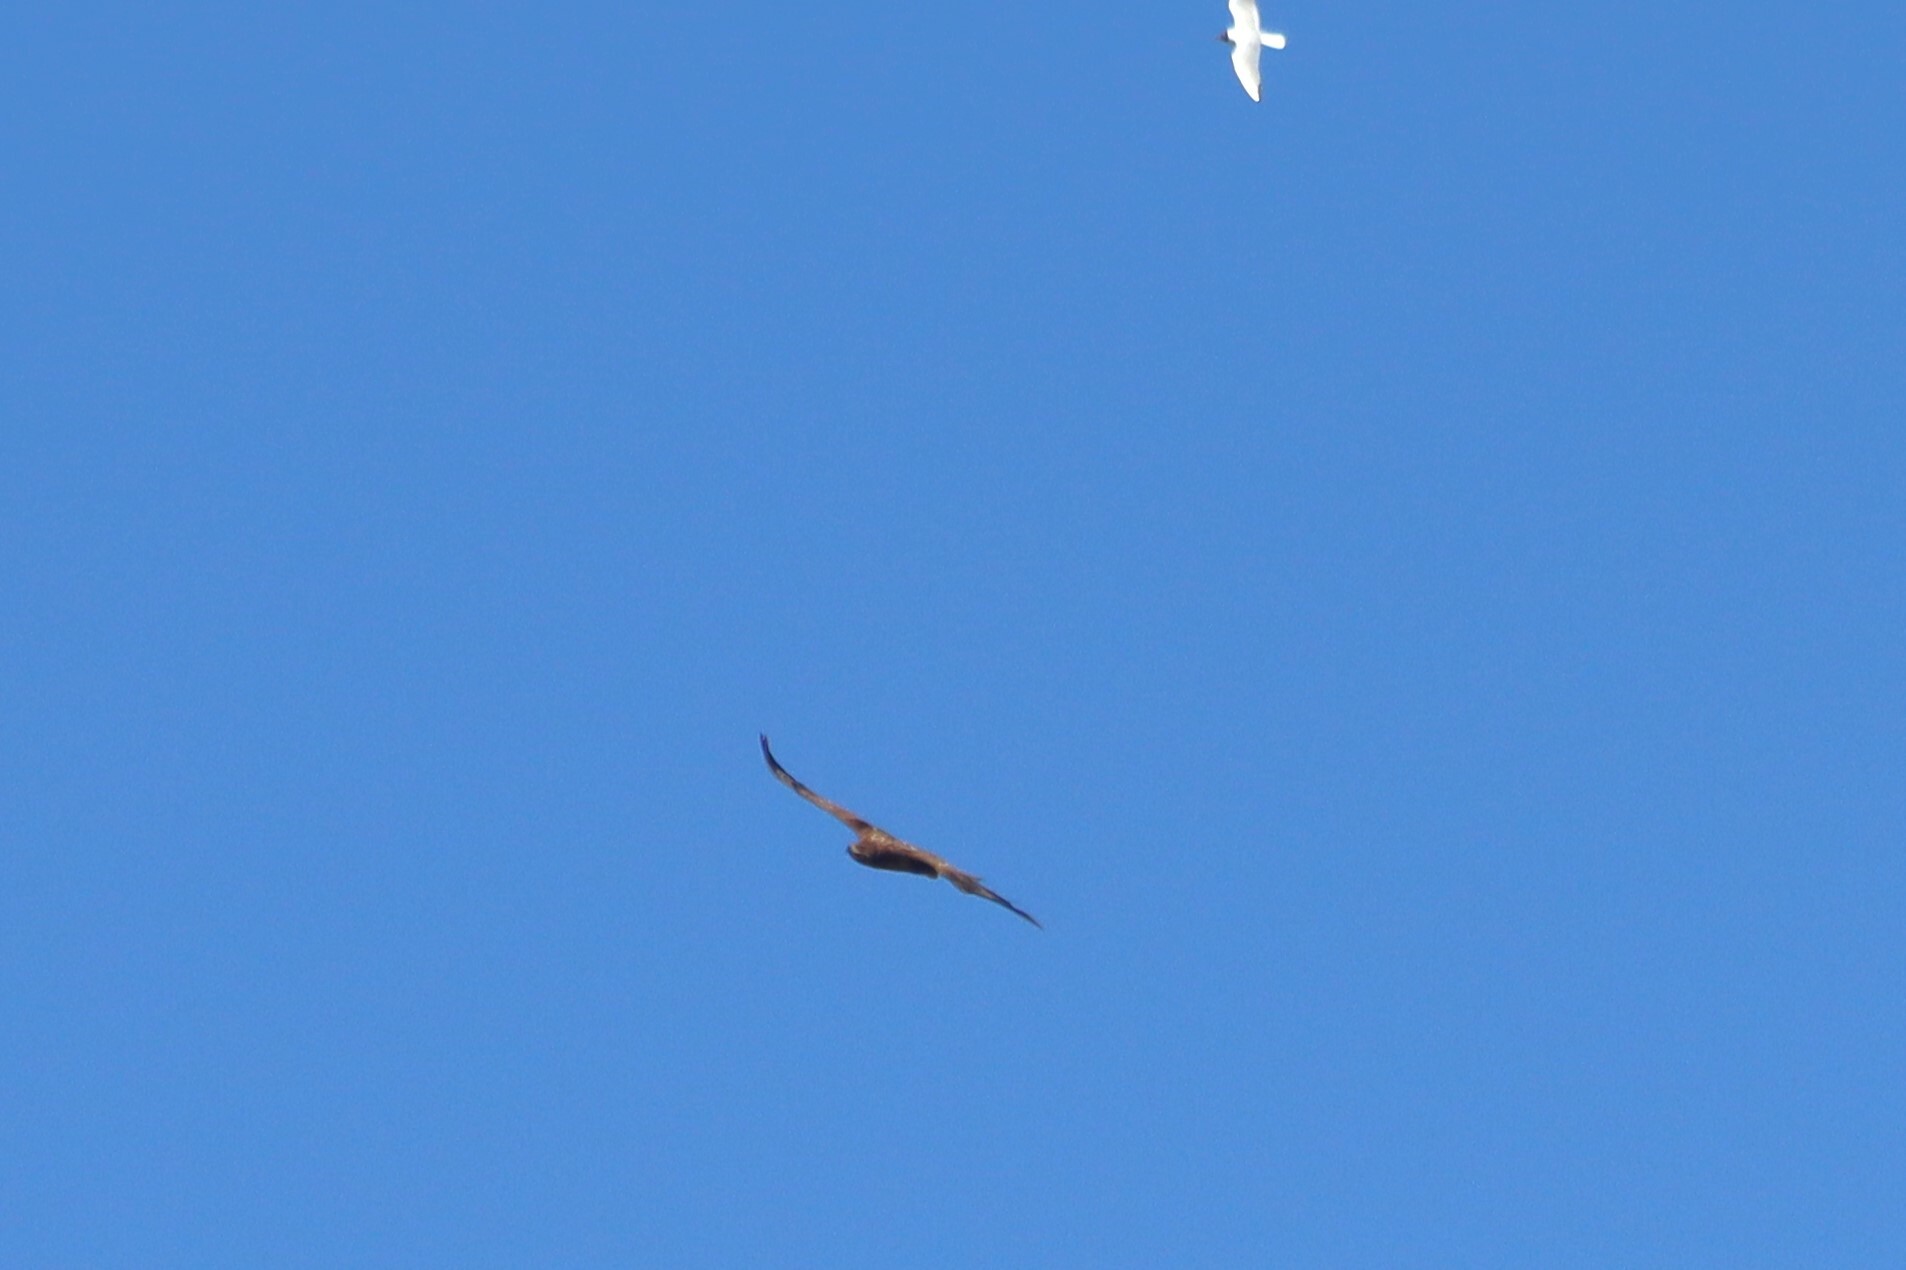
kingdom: Animalia
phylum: Chordata
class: Aves
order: Accipitriformes
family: Accipitridae
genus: Haliaeetus
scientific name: Haliaeetus albicilla
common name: White-tailed eagle
